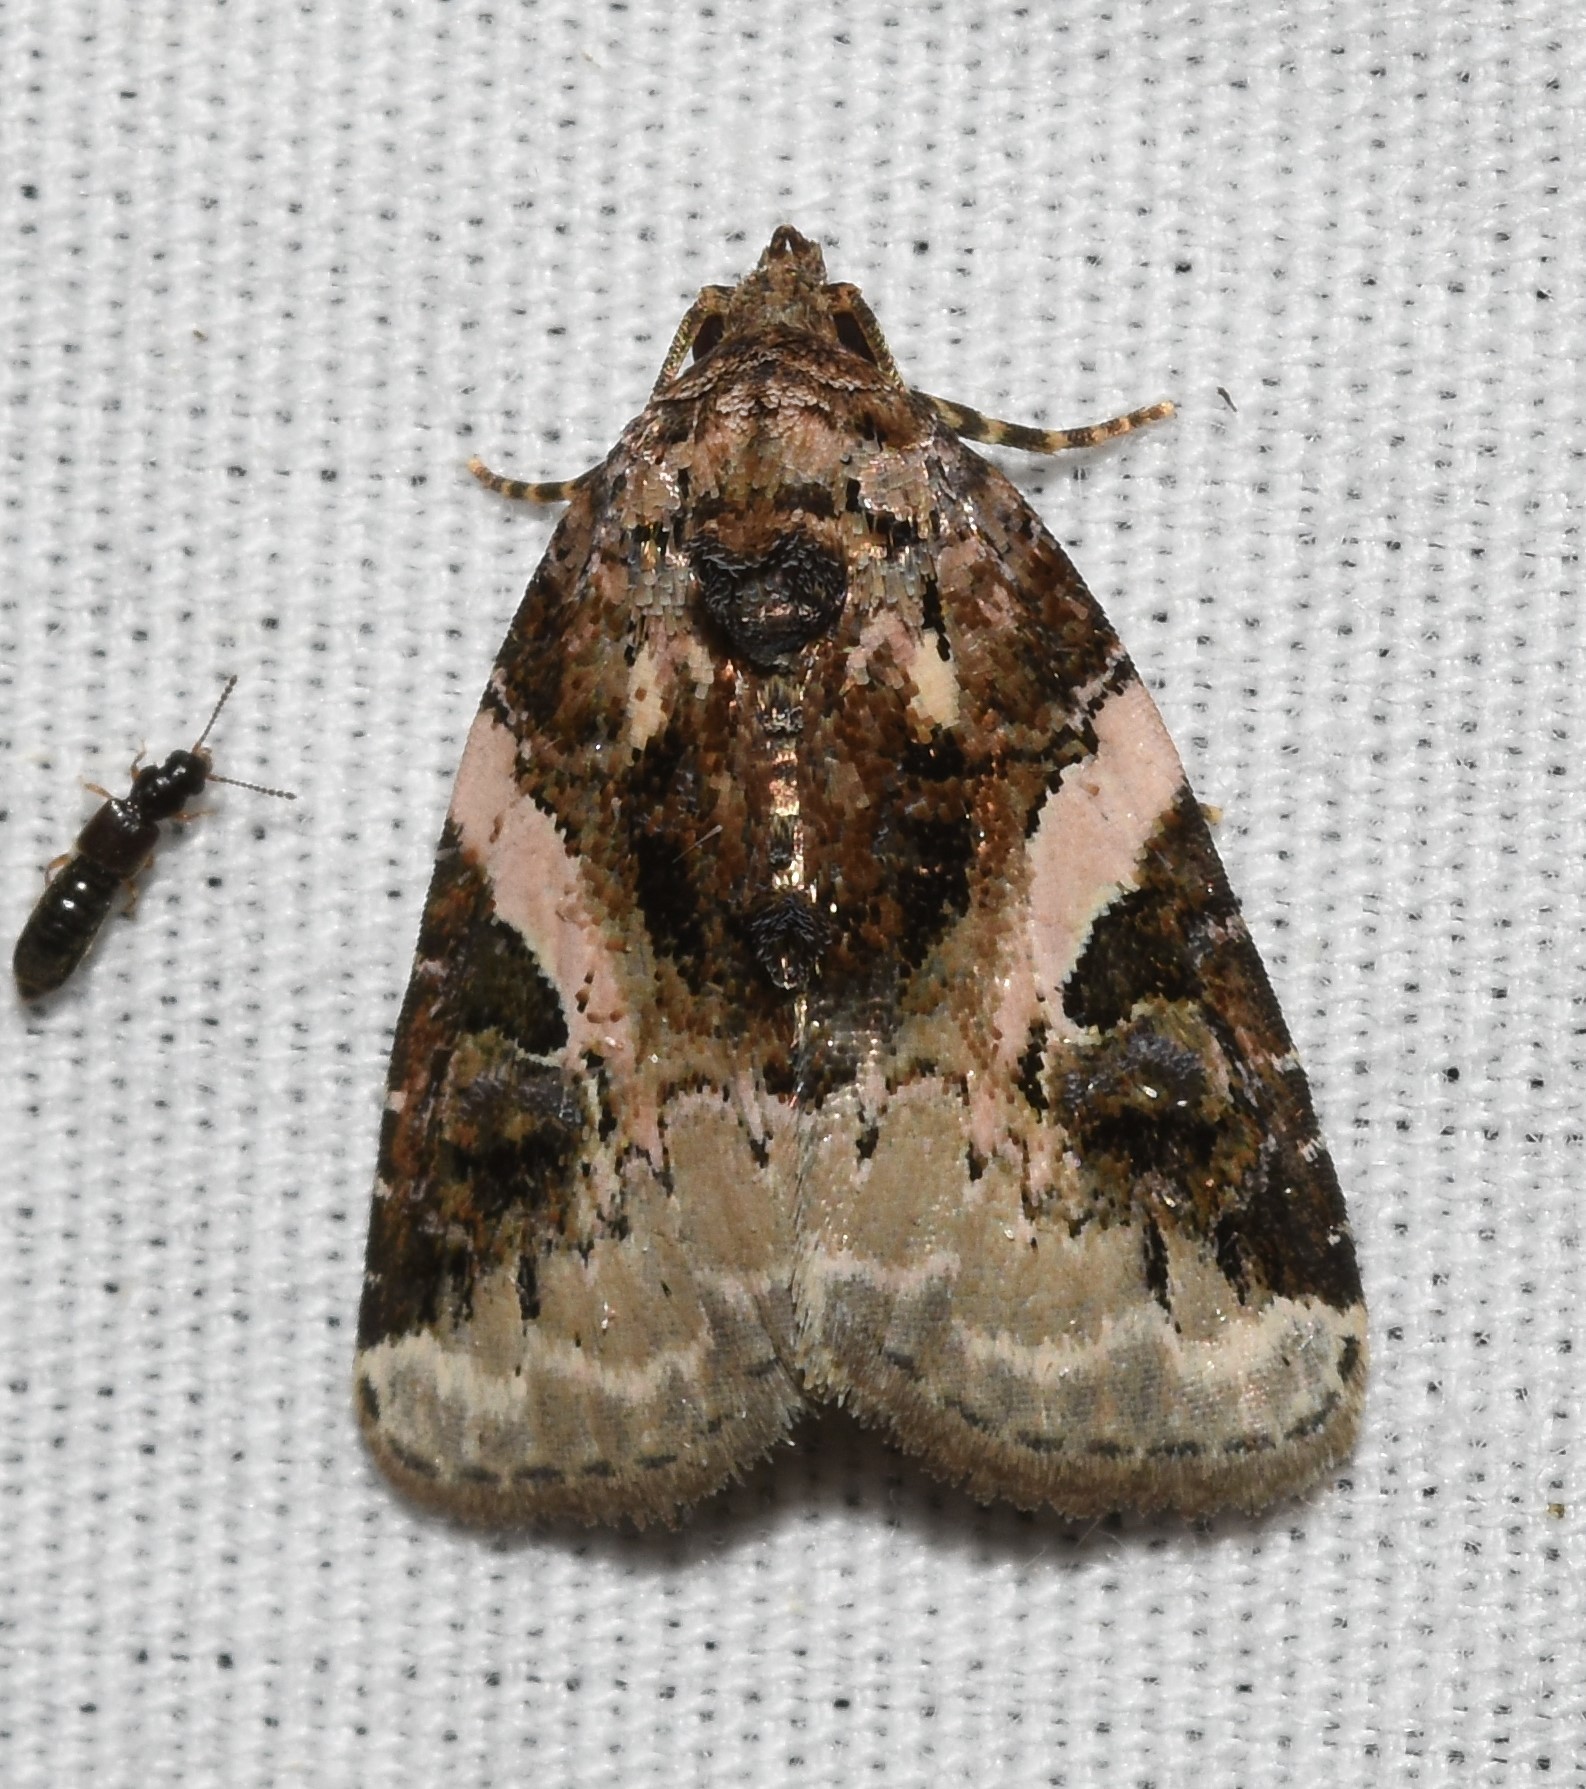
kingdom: Animalia
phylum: Arthropoda
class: Insecta
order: Lepidoptera
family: Noctuidae
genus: Pseudeustrotia
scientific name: Pseudeustrotia carneola
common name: Pink-barred lithacodia moth
